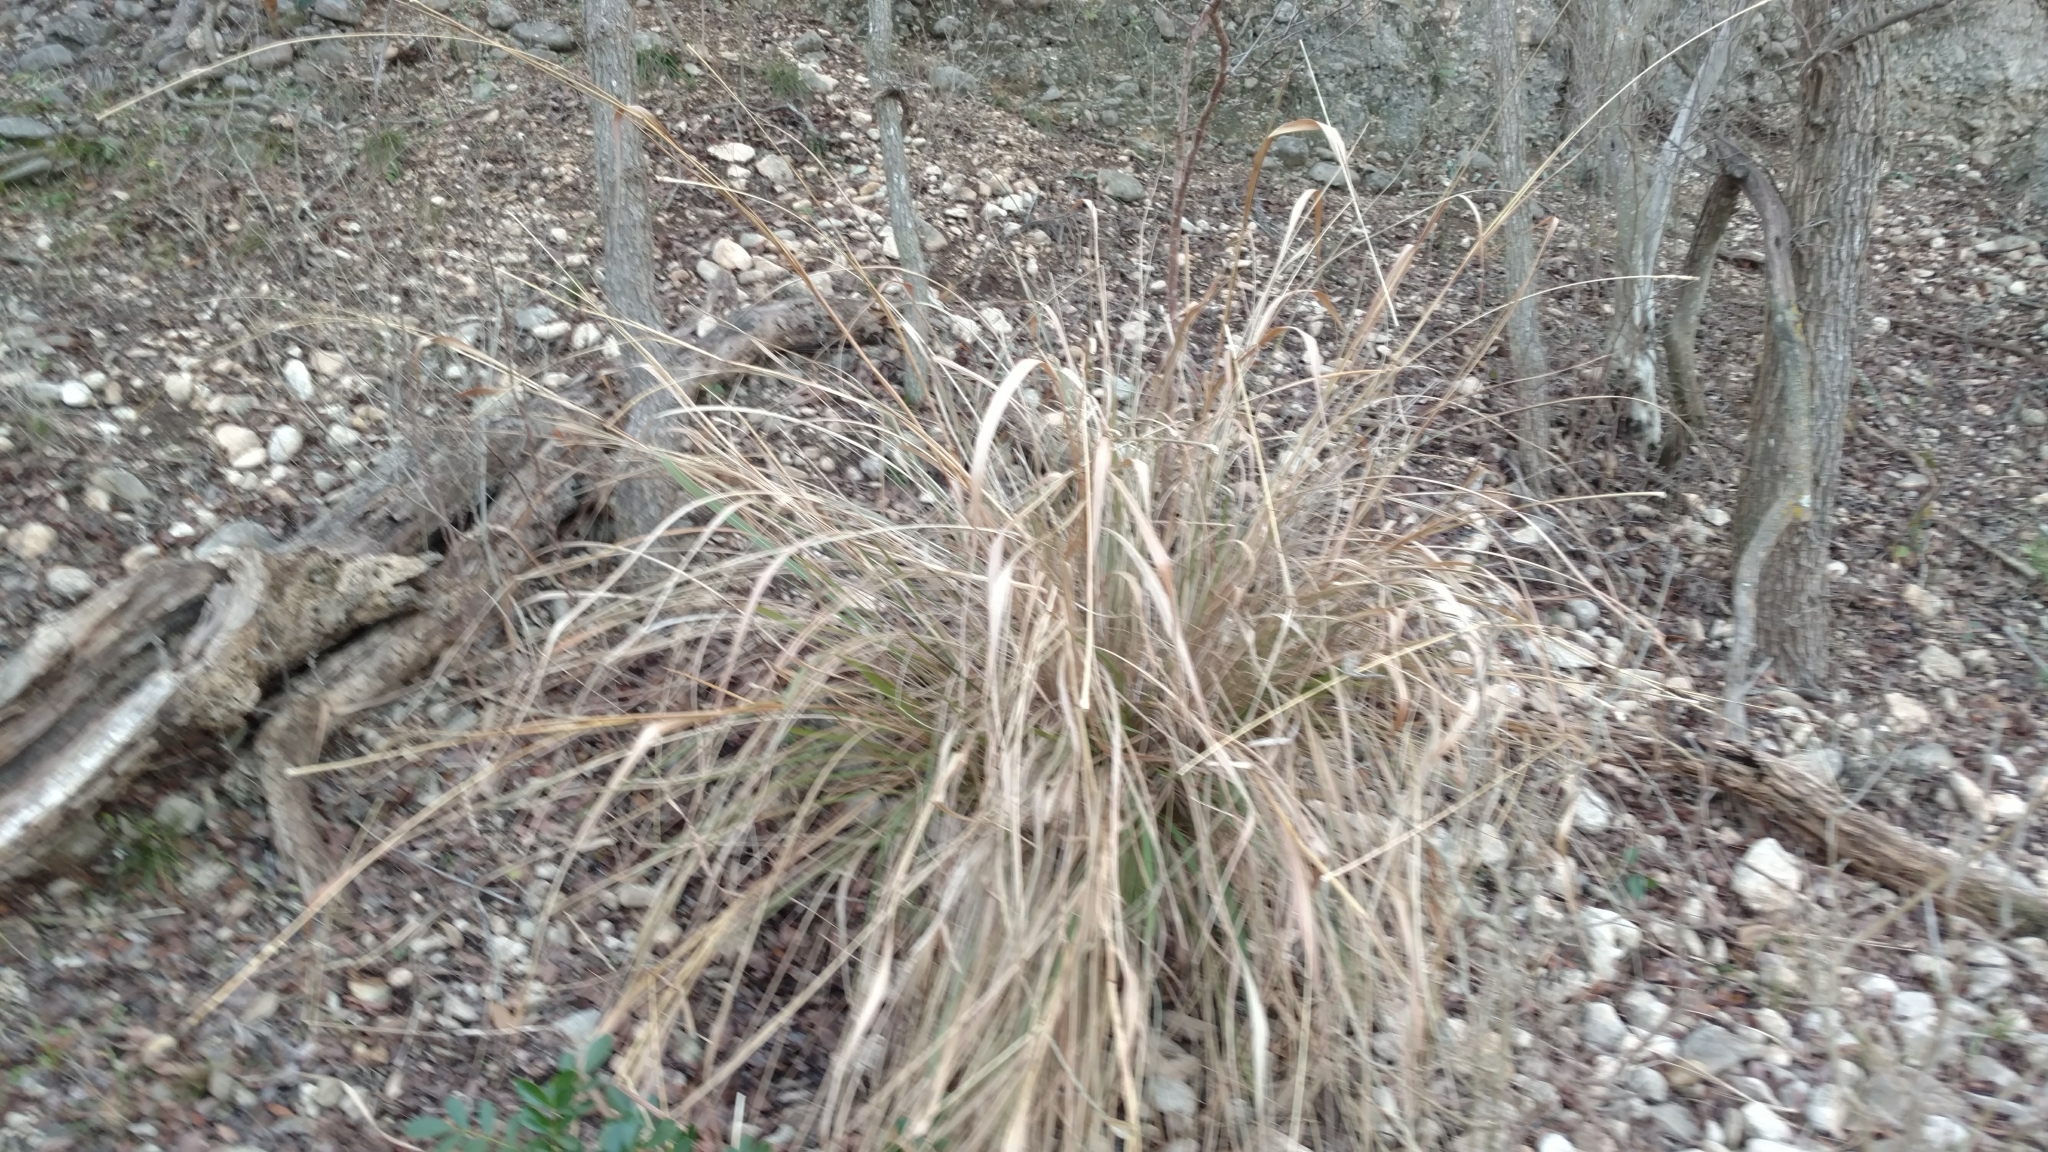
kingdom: Plantae
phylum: Tracheophyta
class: Liliopsida
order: Poales
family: Poaceae
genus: Tripsacum
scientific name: Tripsacum dactyloides
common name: Buffalo-grass
